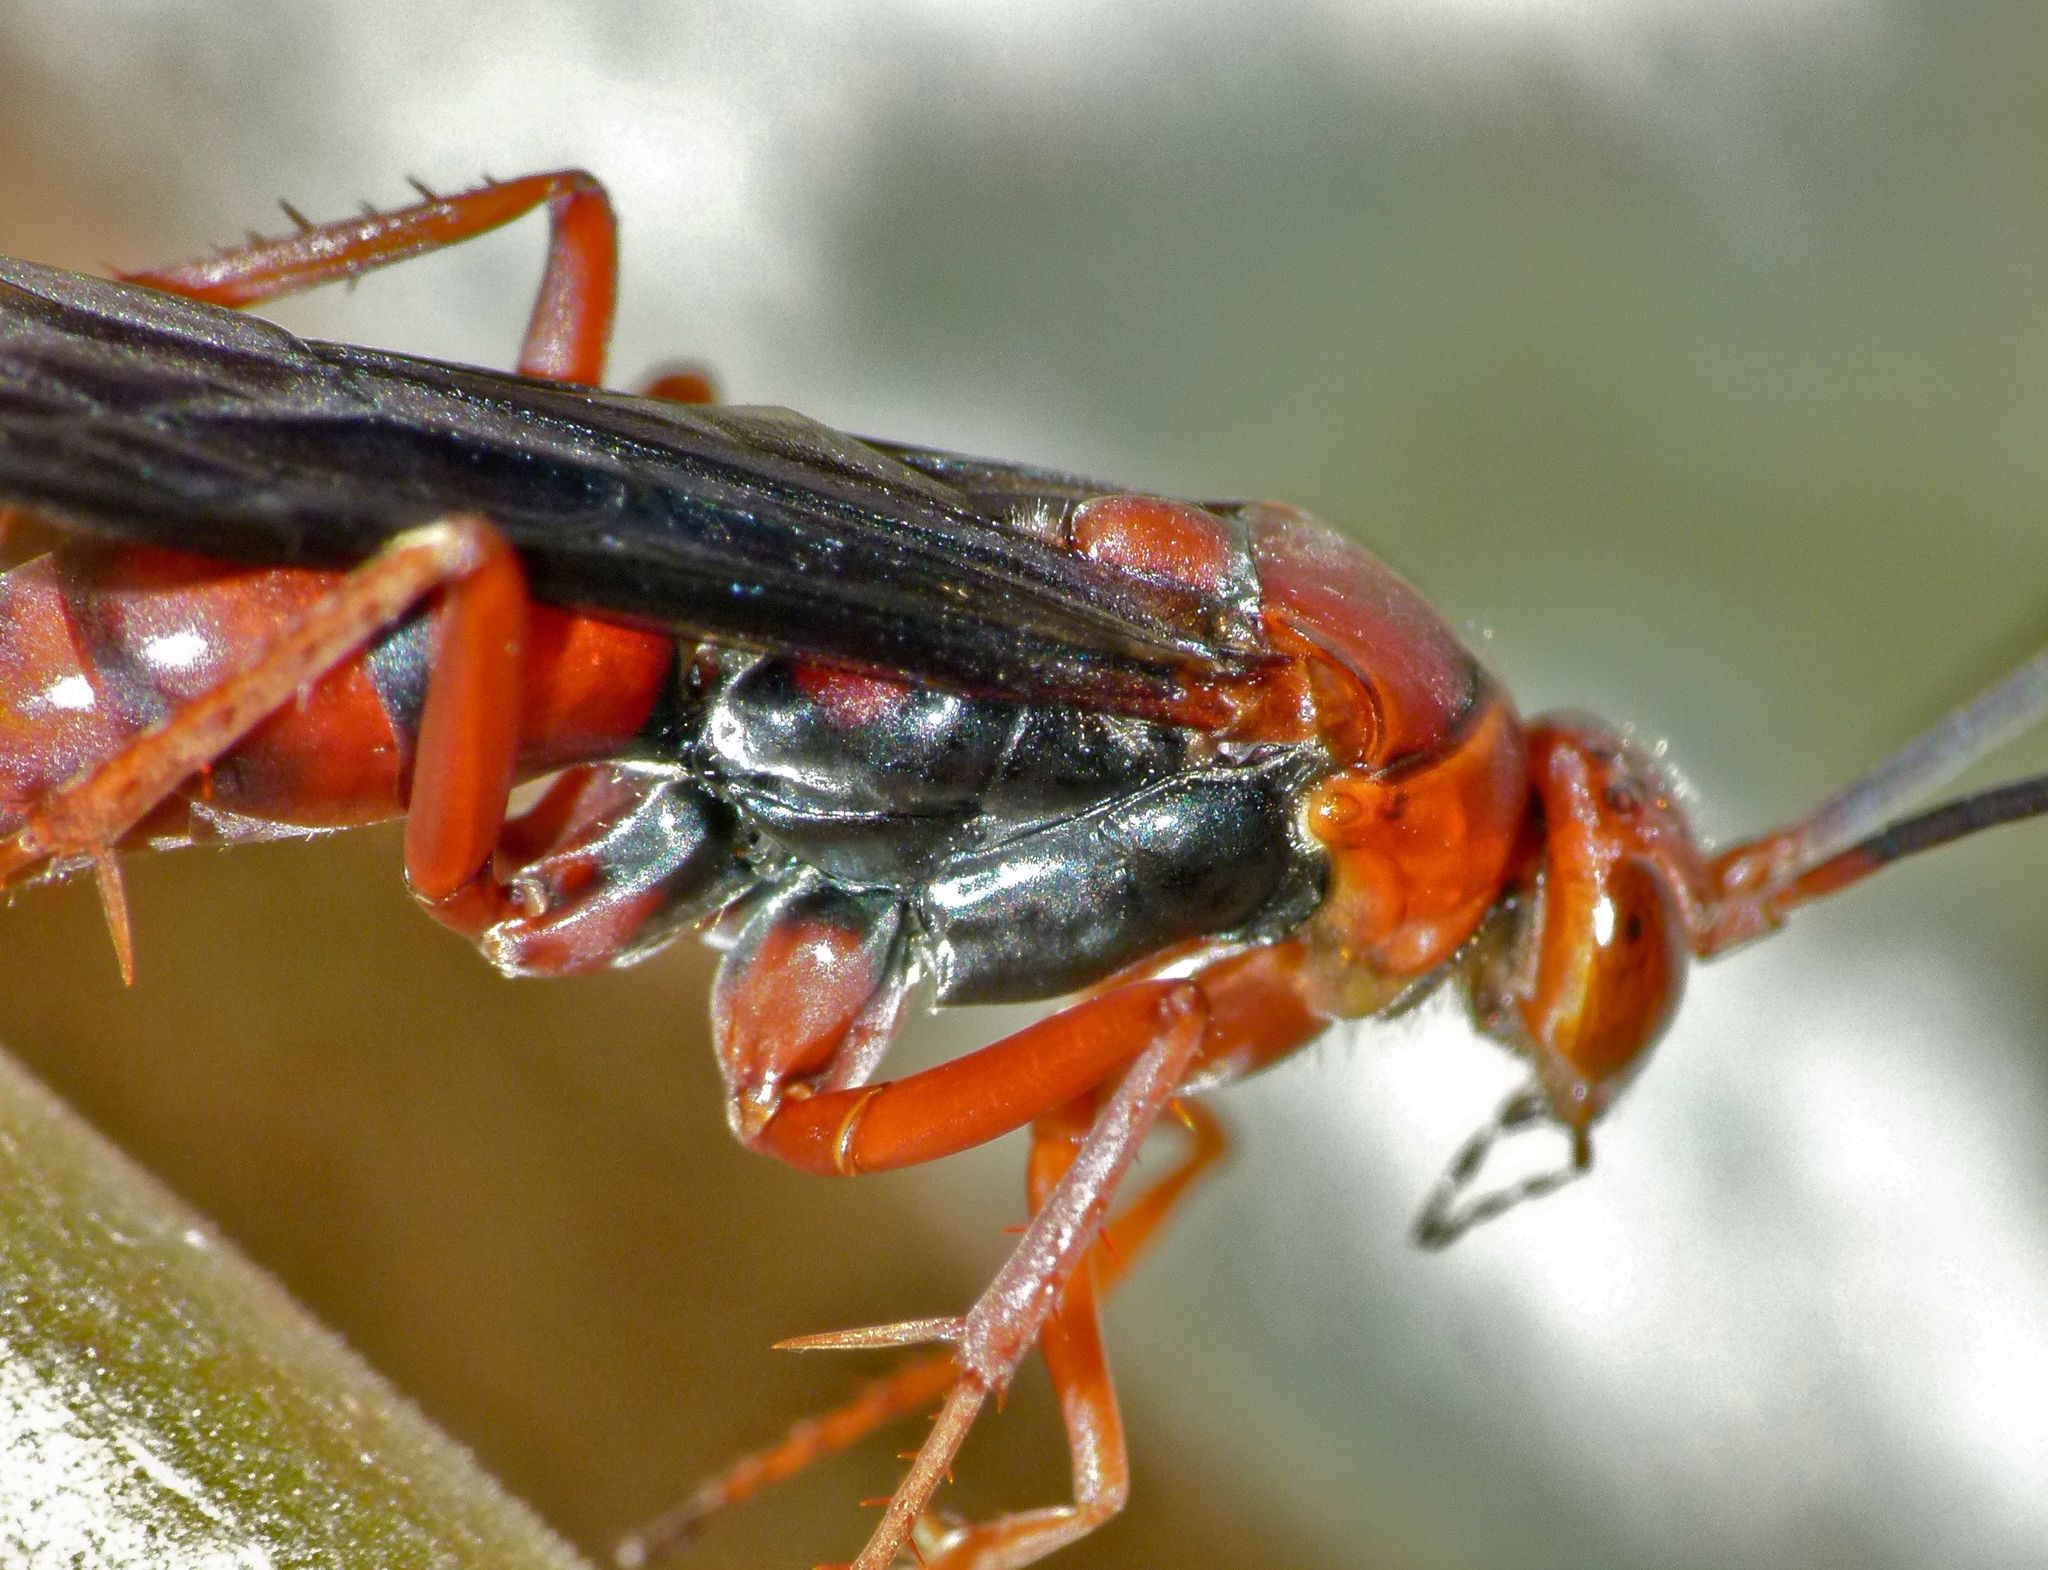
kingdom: Animalia
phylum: Arthropoda
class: Insecta
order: Hymenoptera
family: Pompilidae
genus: Tachypompilus
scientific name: Tachypompilus ferrugineus
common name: Rusty spider wasp
